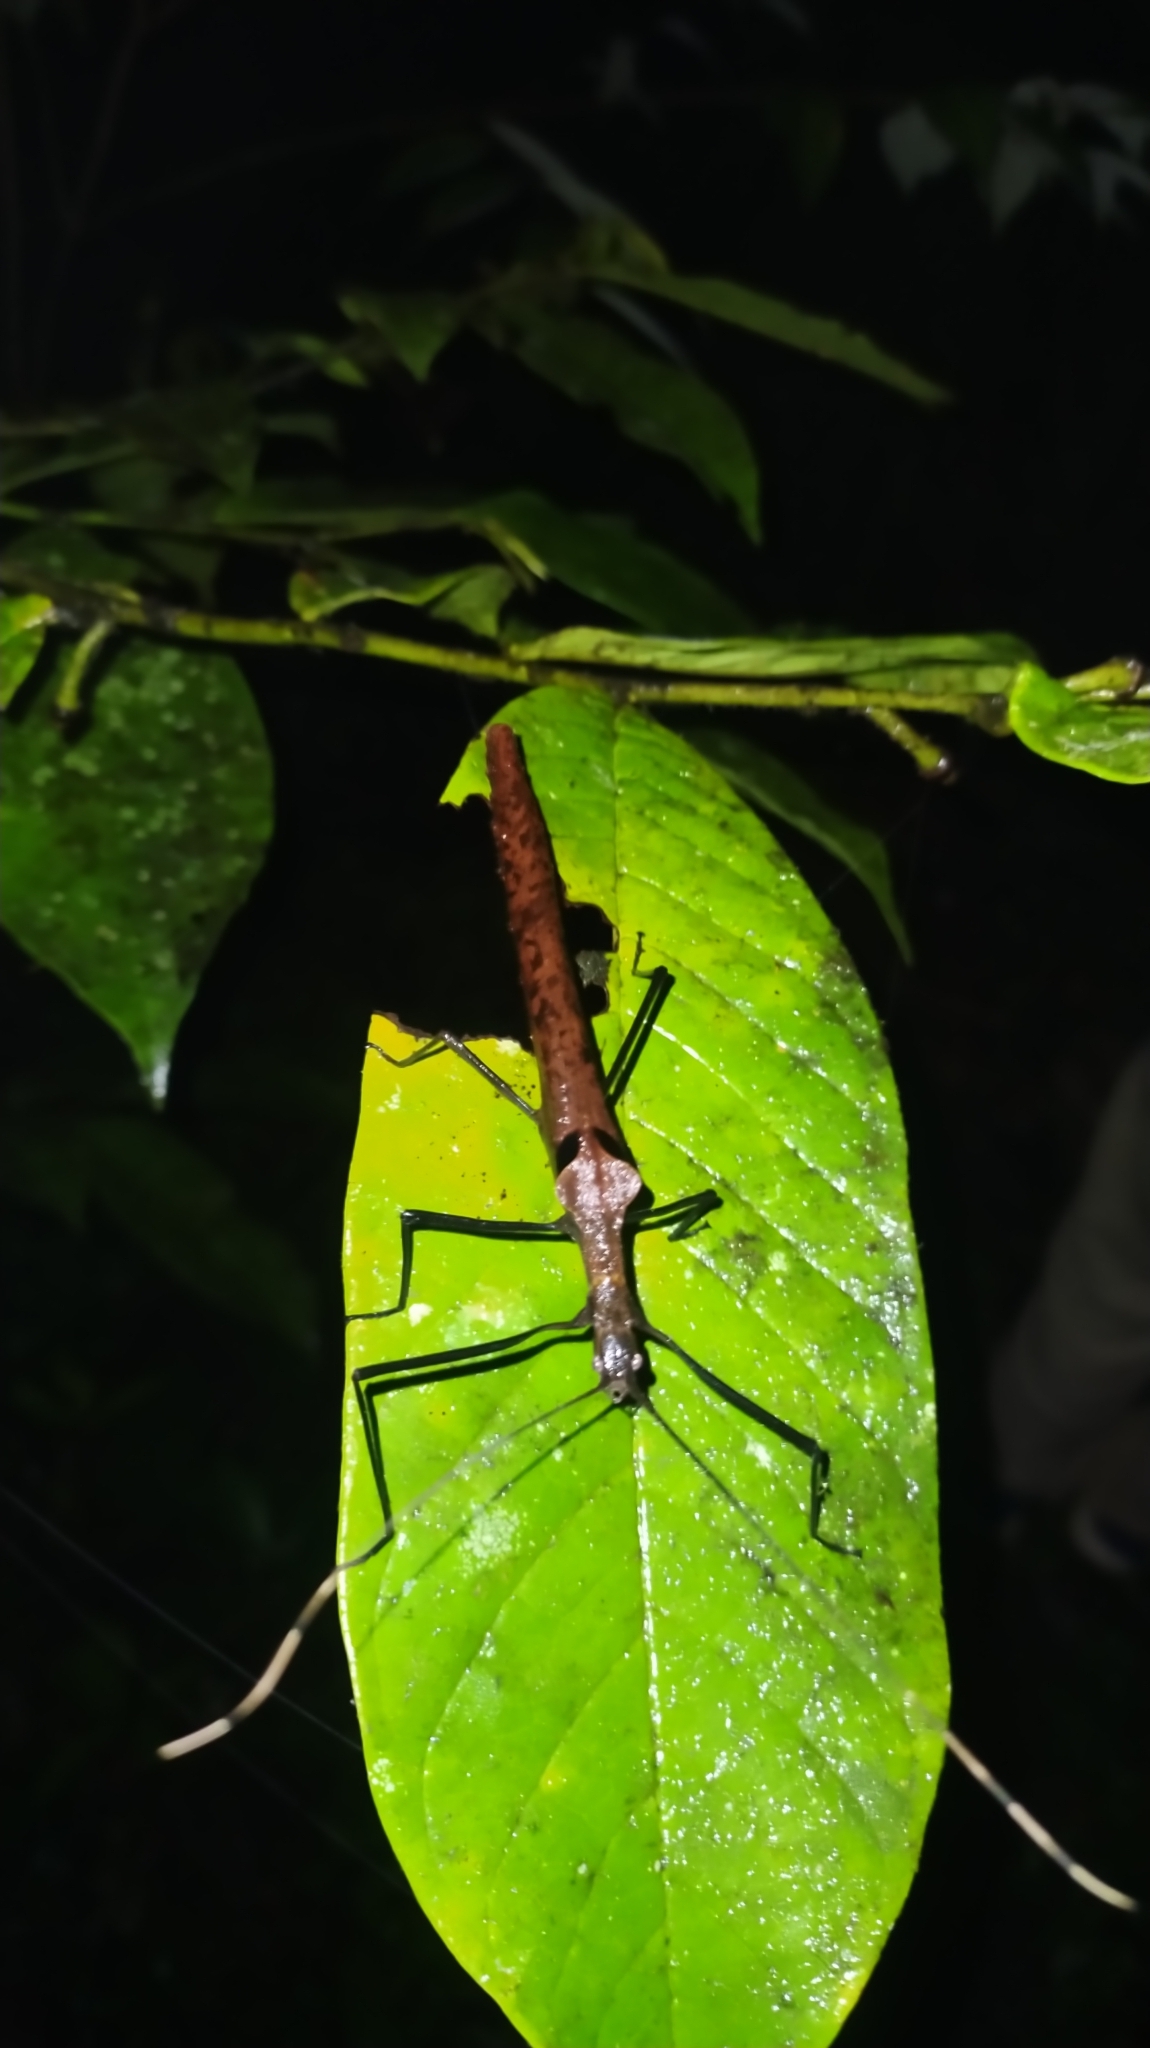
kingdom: Animalia
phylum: Arthropoda
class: Insecta
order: Phasmida
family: Pseudophasmatidae
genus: Pseudophasma
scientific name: Pseudophasma phthisicum
